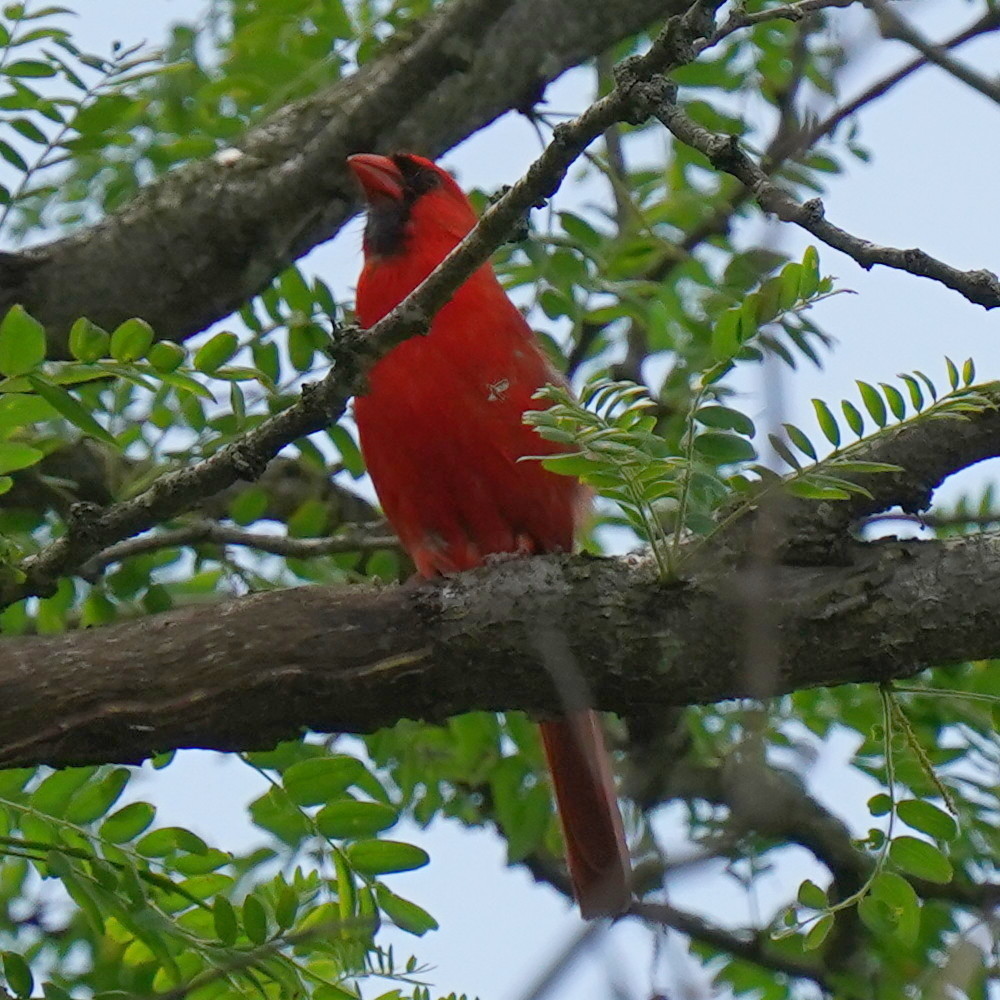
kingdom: Animalia
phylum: Chordata
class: Aves
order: Passeriformes
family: Cardinalidae
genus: Cardinalis
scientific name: Cardinalis cardinalis
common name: Northern cardinal
